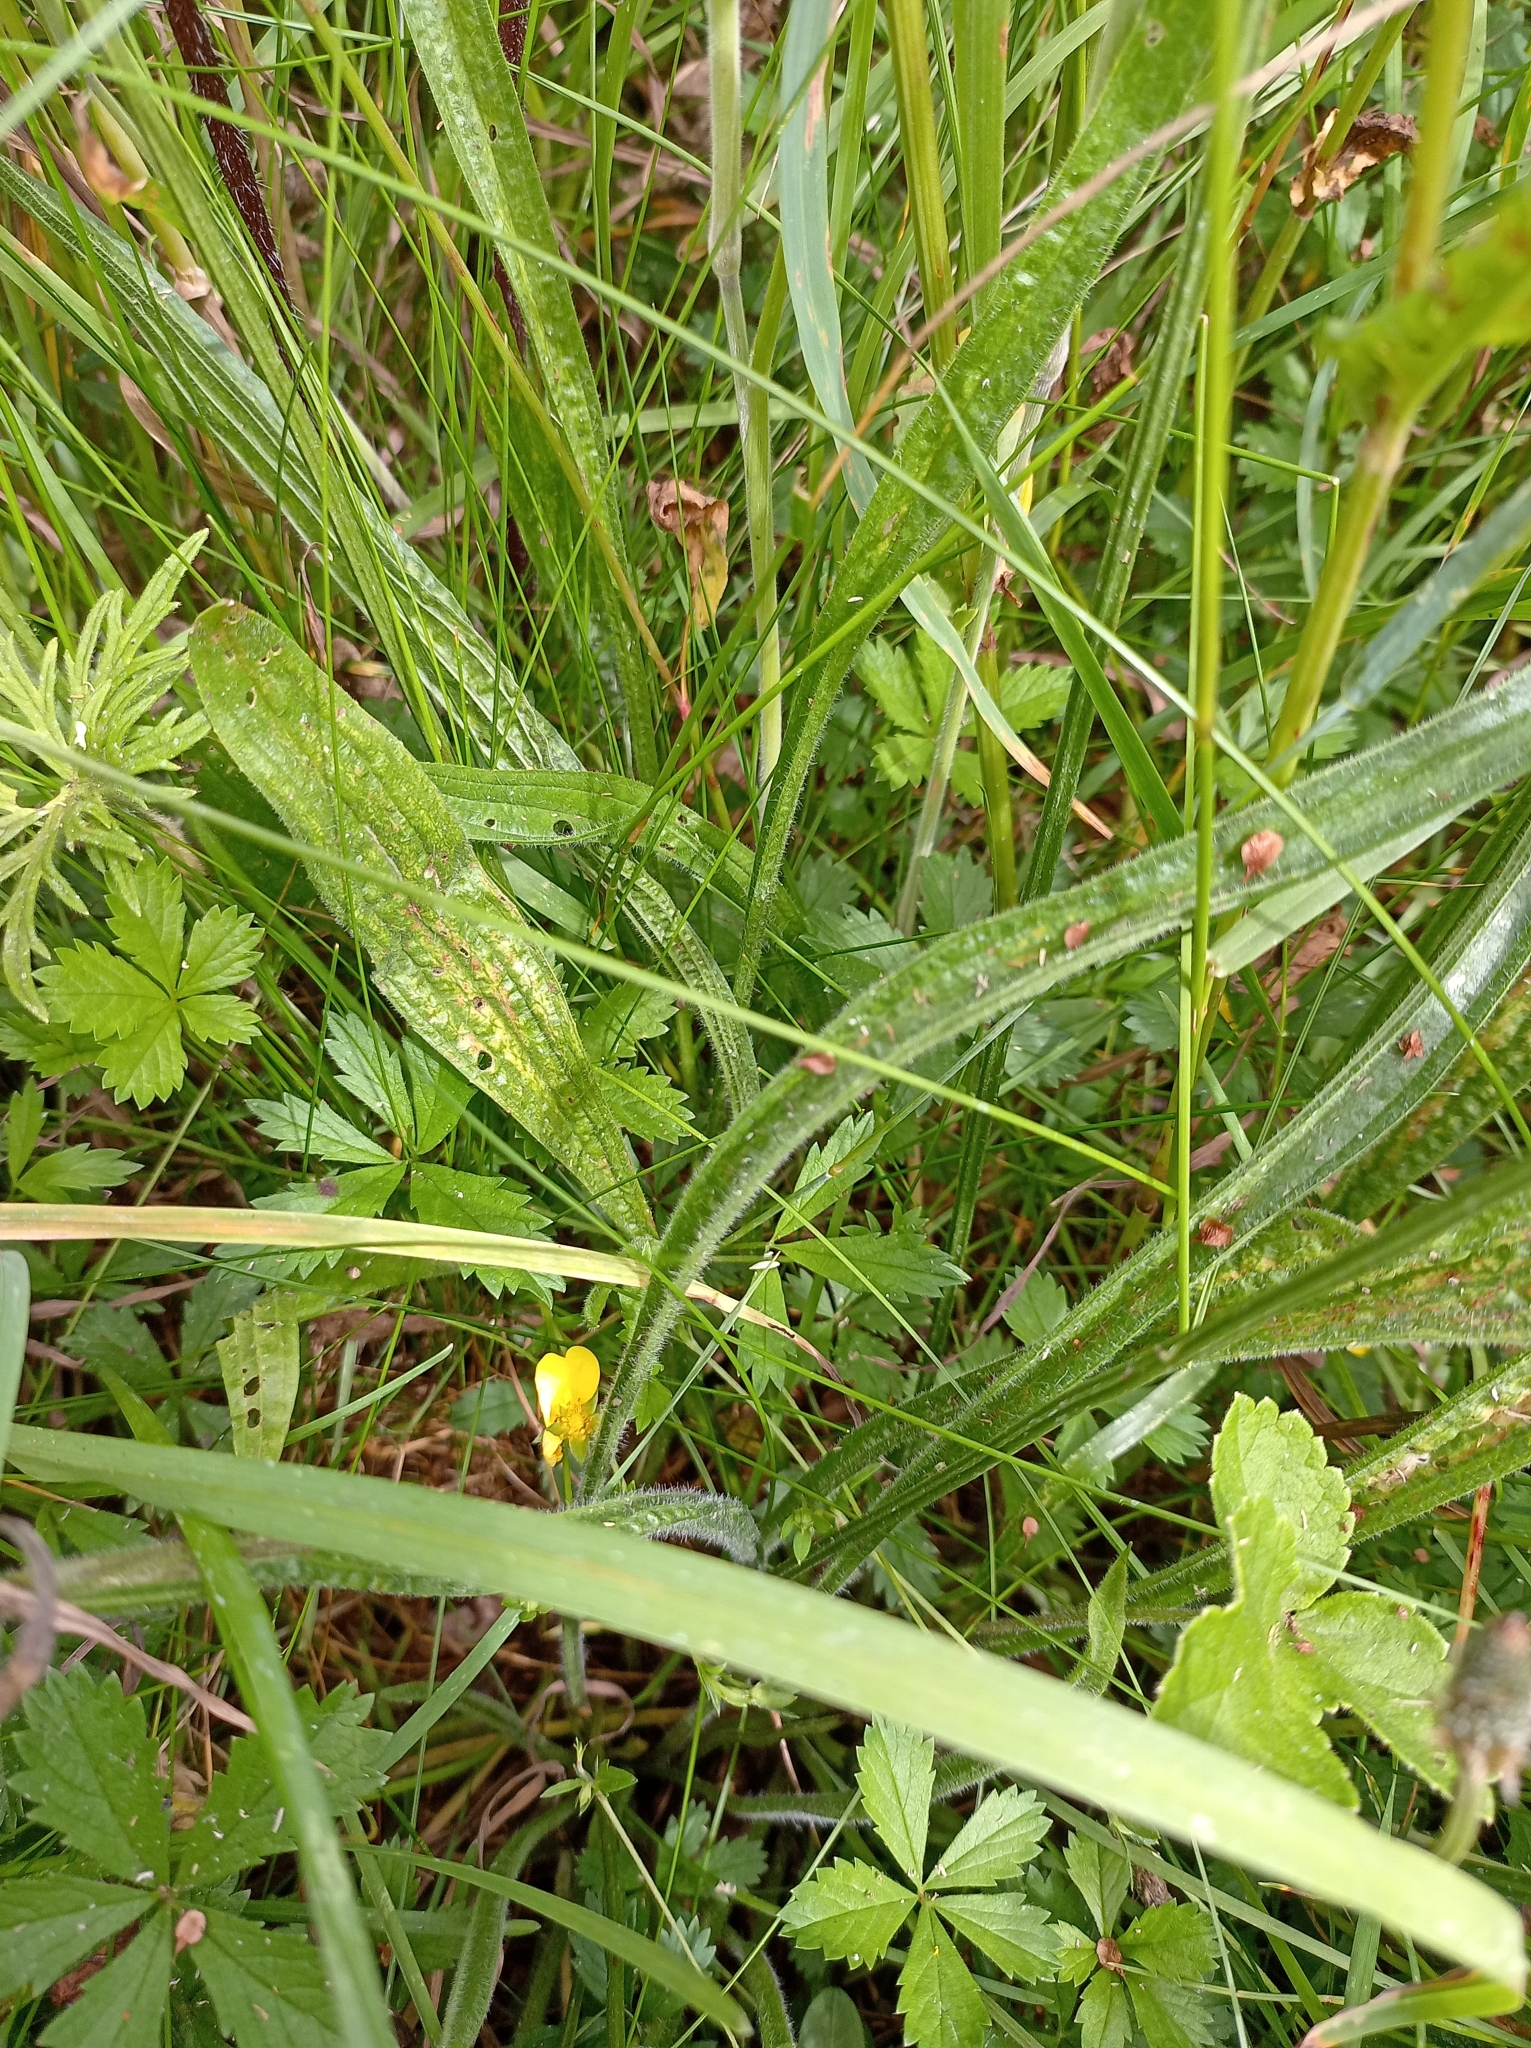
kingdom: Plantae
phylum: Tracheophyta
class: Magnoliopsida
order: Lamiales
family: Plantaginaceae
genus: Plantago
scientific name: Plantago lanceolata
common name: Ribwort plantain
